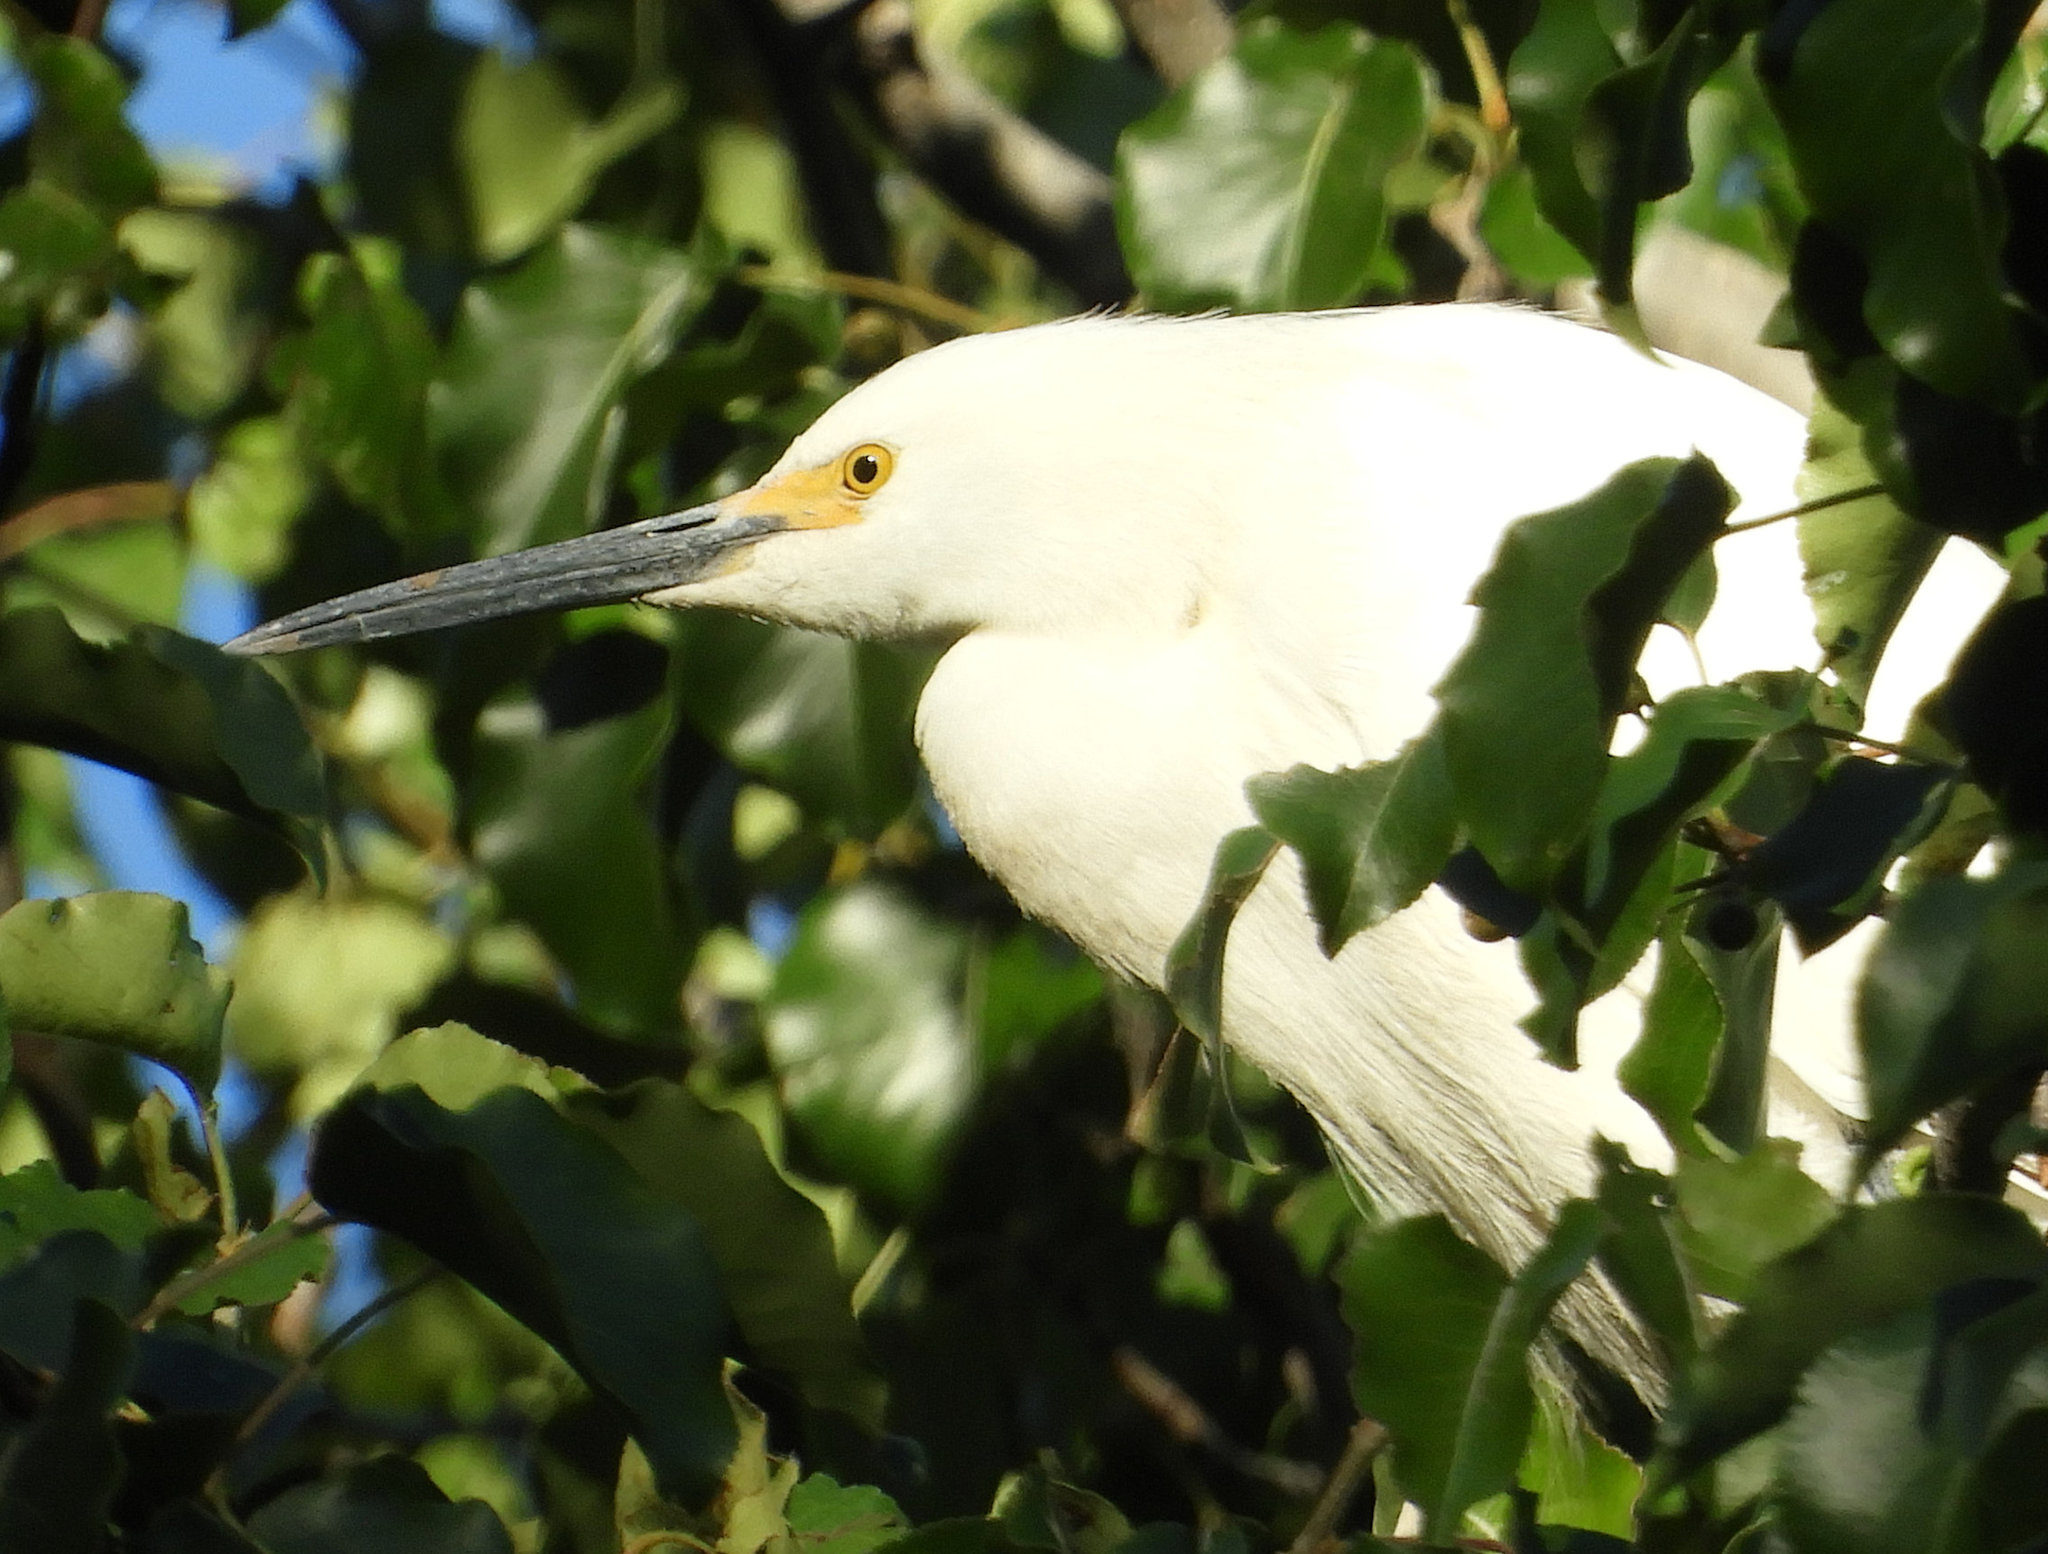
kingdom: Animalia
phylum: Chordata
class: Aves
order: Pelecaniformes
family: Ardeidae
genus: Egretta
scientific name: Egretta thula
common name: Snowy egret
